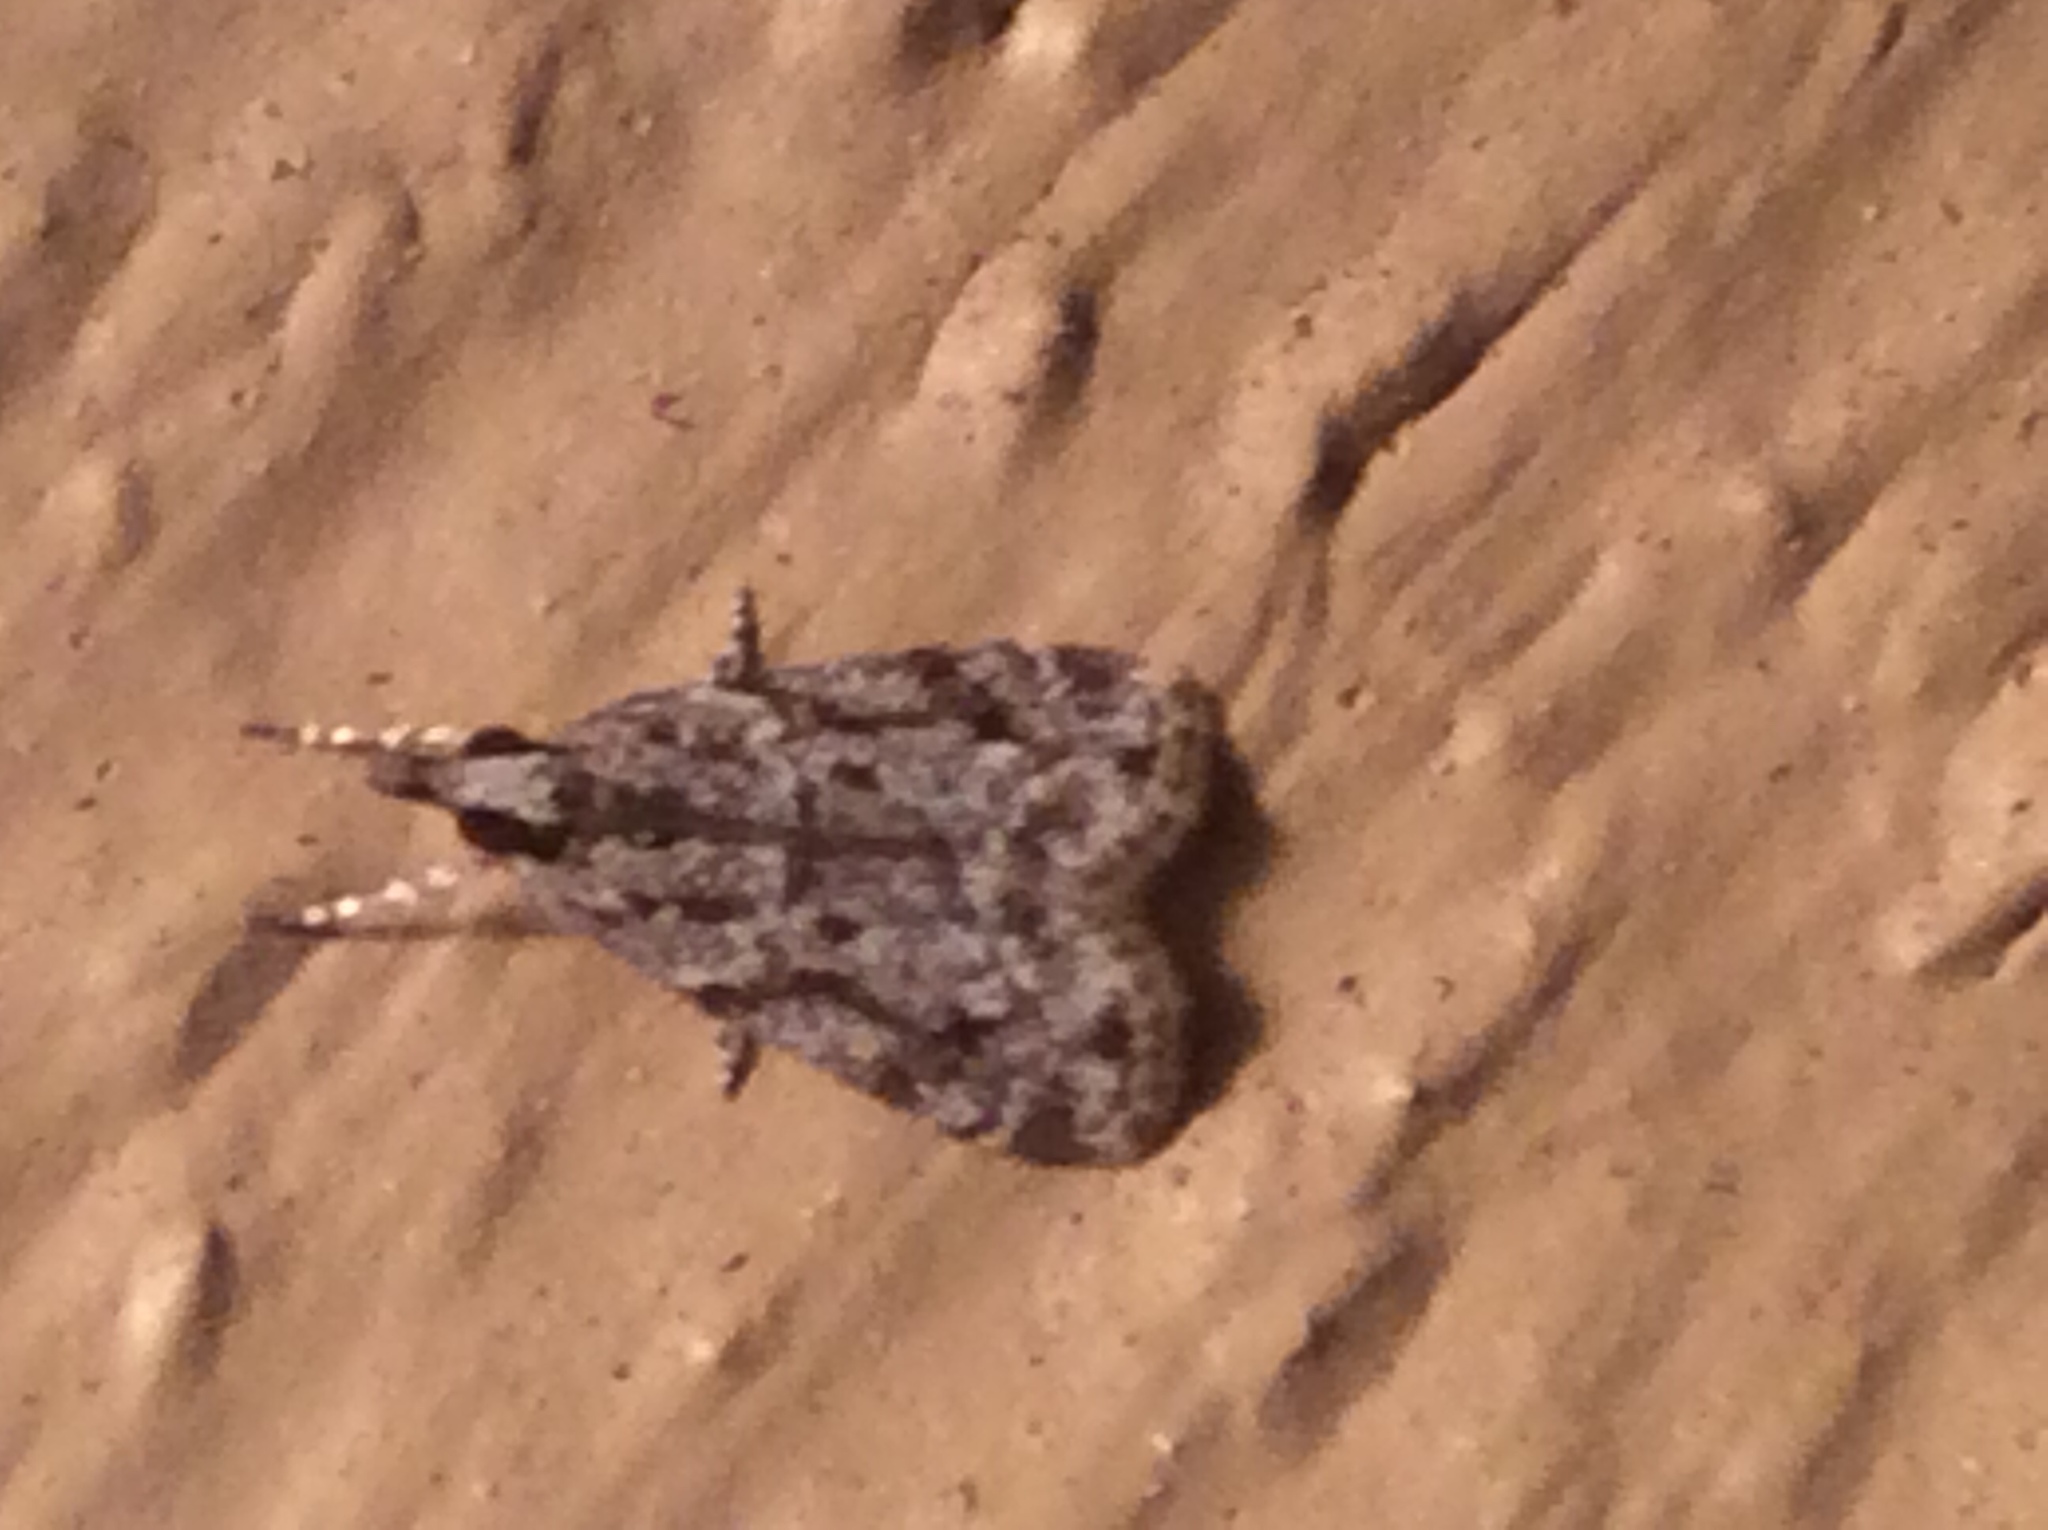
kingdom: Animalia
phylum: Arthropoda
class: Insecta
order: Lepidoptera
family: Crambidae
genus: Eudonia
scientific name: Eudonia heterosalis
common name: Mcdunnough's eudonia
